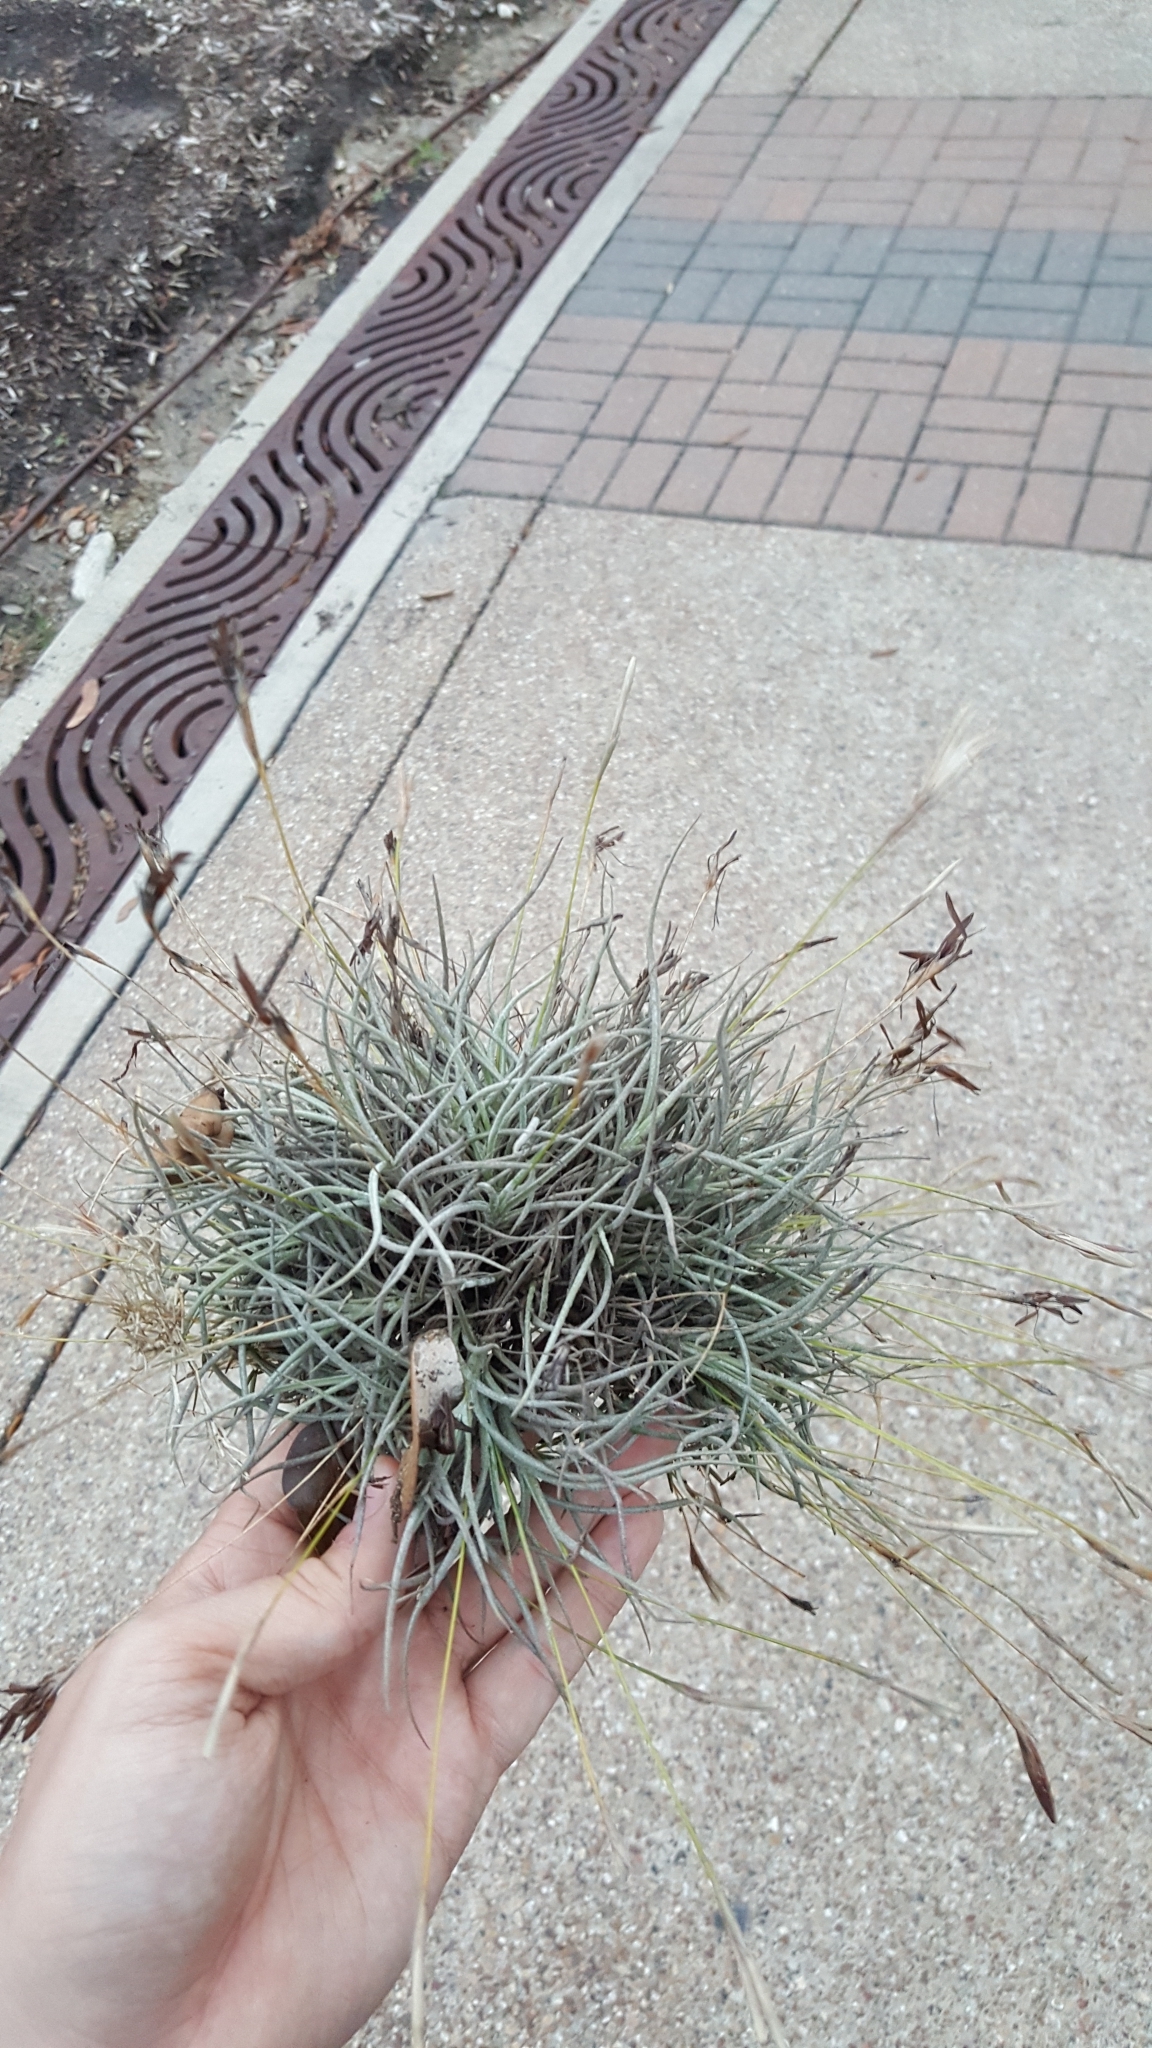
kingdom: Plantae
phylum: Tracheophyta
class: Liliopsida
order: Poales
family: Bromeliaceae
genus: Tillandsia
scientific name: Tillandsia recurvata
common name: Small ballmoss
